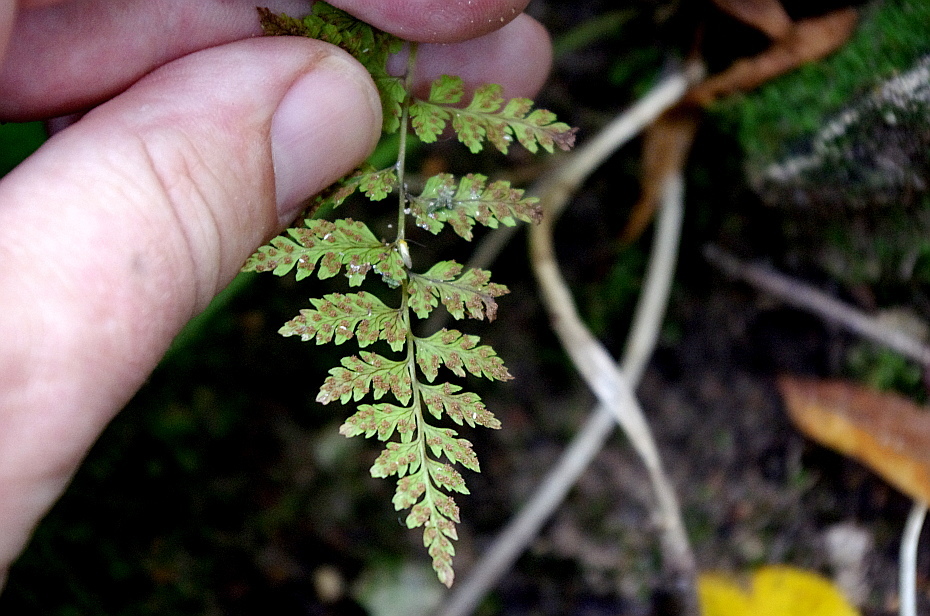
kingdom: Plantae
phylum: Tracheophyta
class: Polypodiopsida
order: Polypodiales
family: Cystopteridaceae
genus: Cystopteris
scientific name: Cystopteris fragilis
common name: Brittle bladder fern
